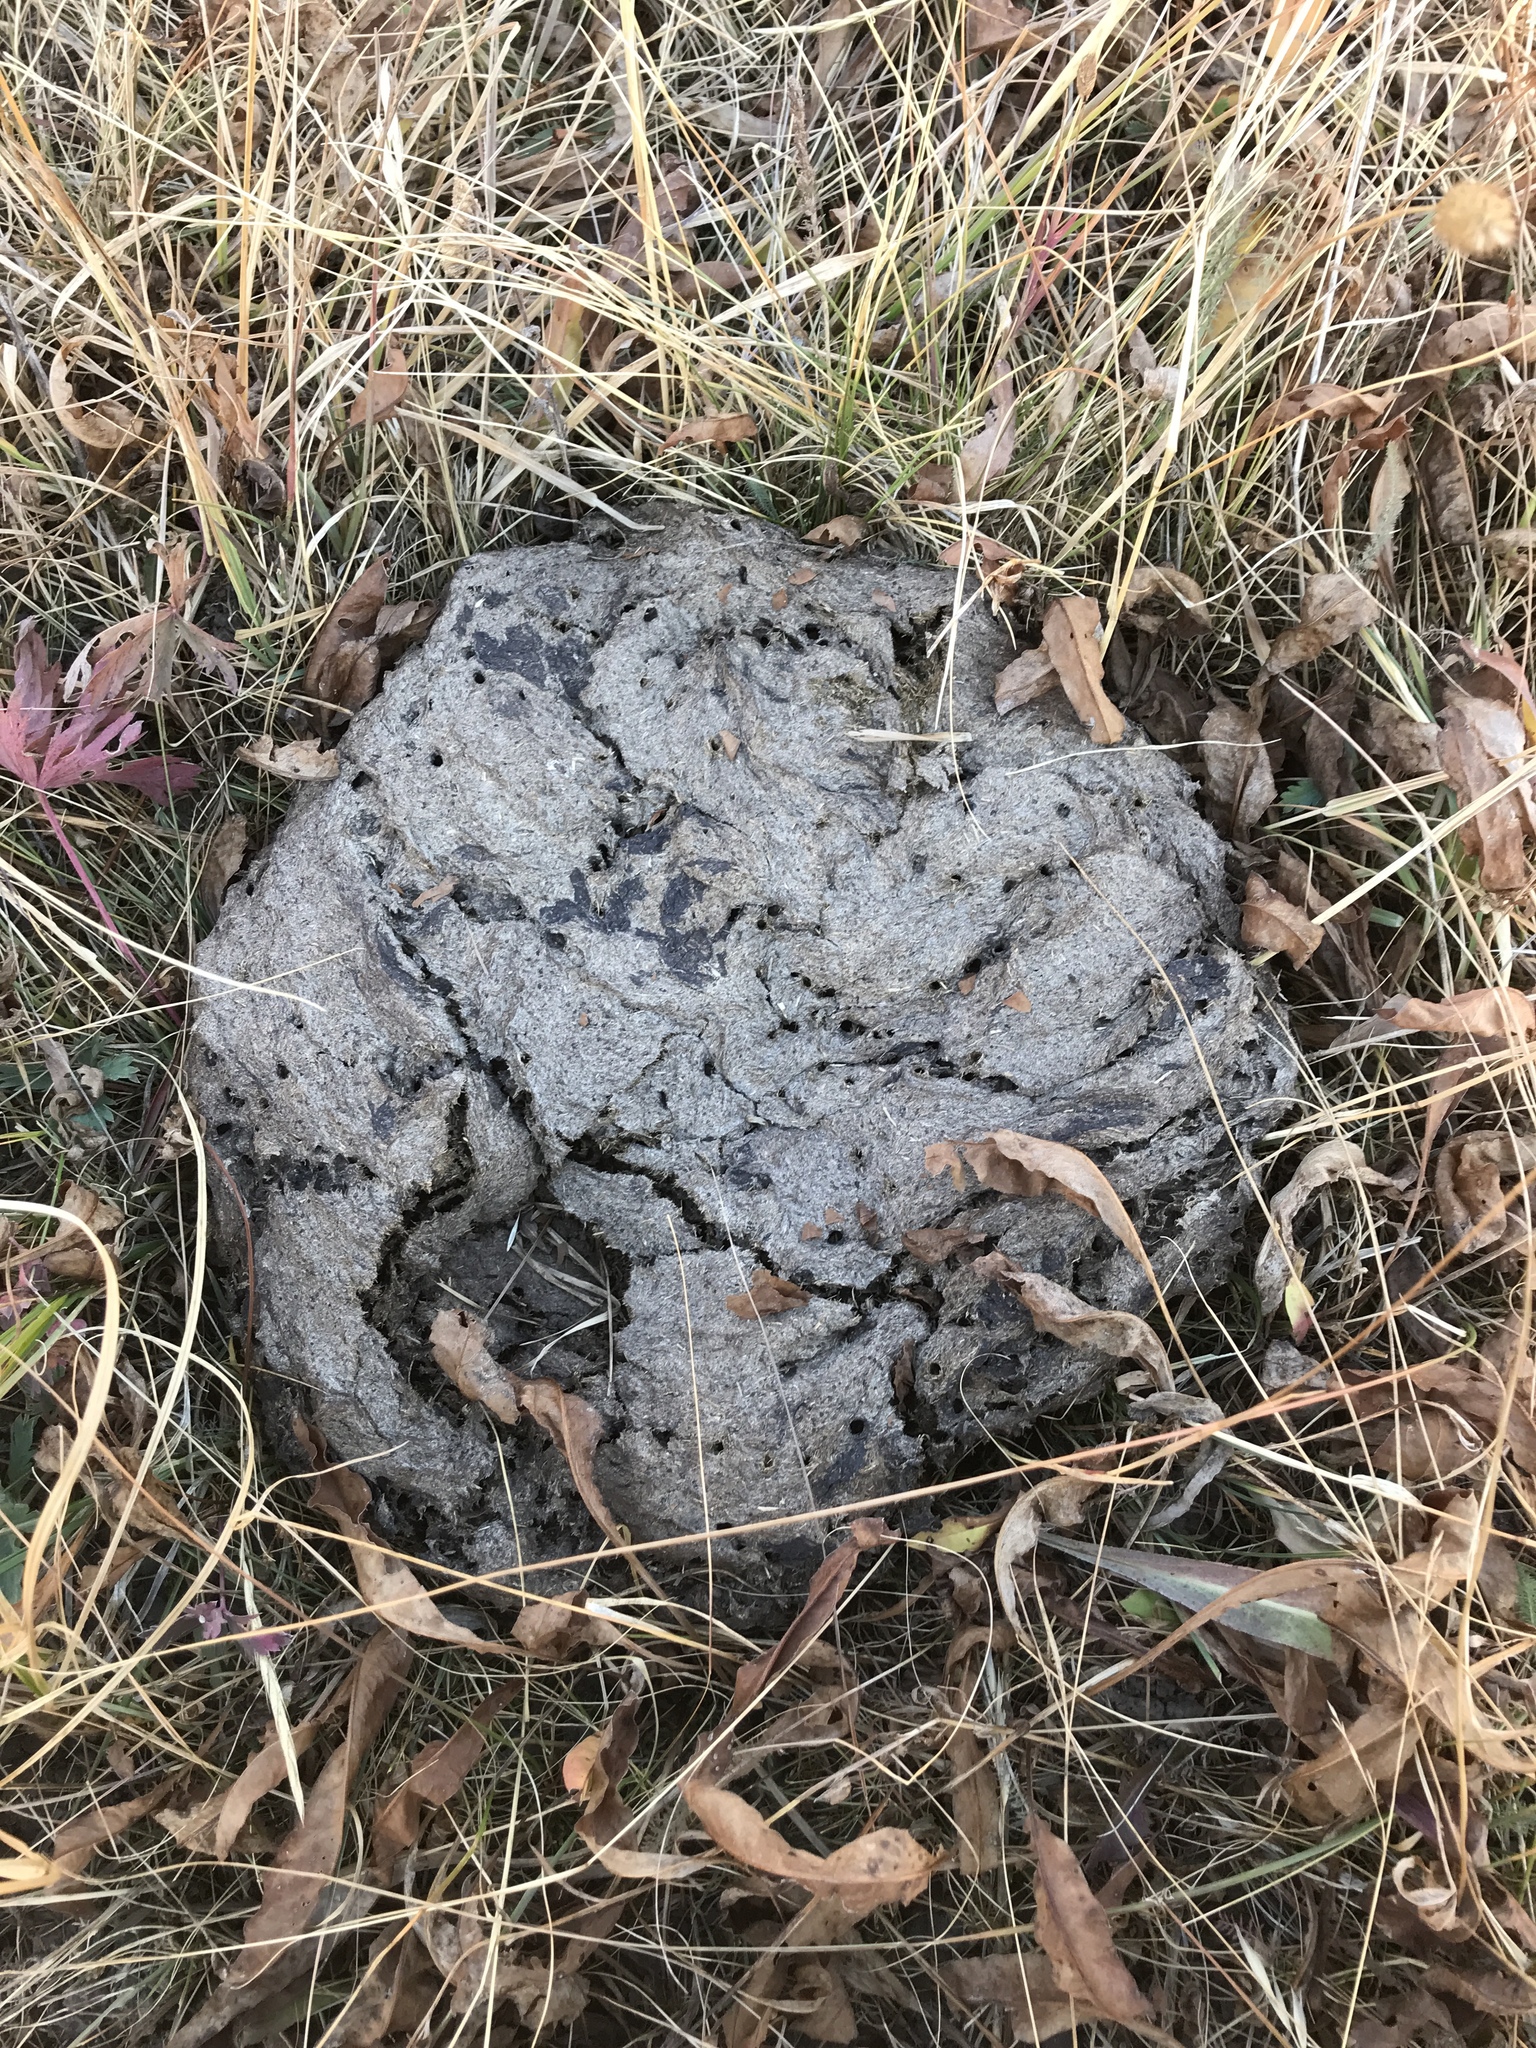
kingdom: Animalia
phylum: Chordata
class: Mammalia
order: Artiodactyla
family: Bovidae
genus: Bison
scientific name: Bison bison
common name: American bison
